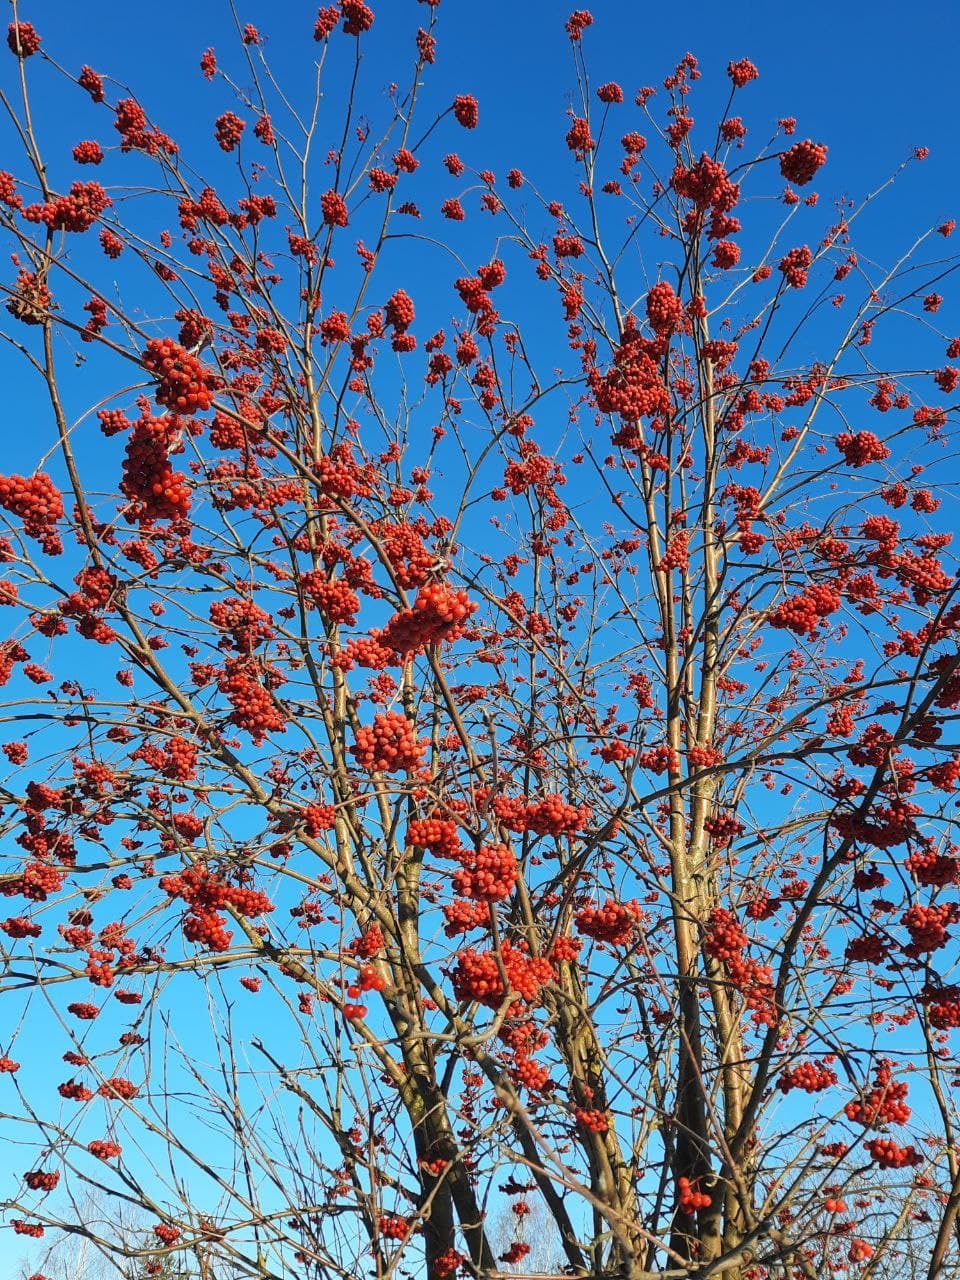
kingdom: Plantae
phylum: Tracheophyta
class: Magnoliopsida
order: Rosales
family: Rosaceae
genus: Sorbus
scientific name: Sorbus aucuparia
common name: Rowan
